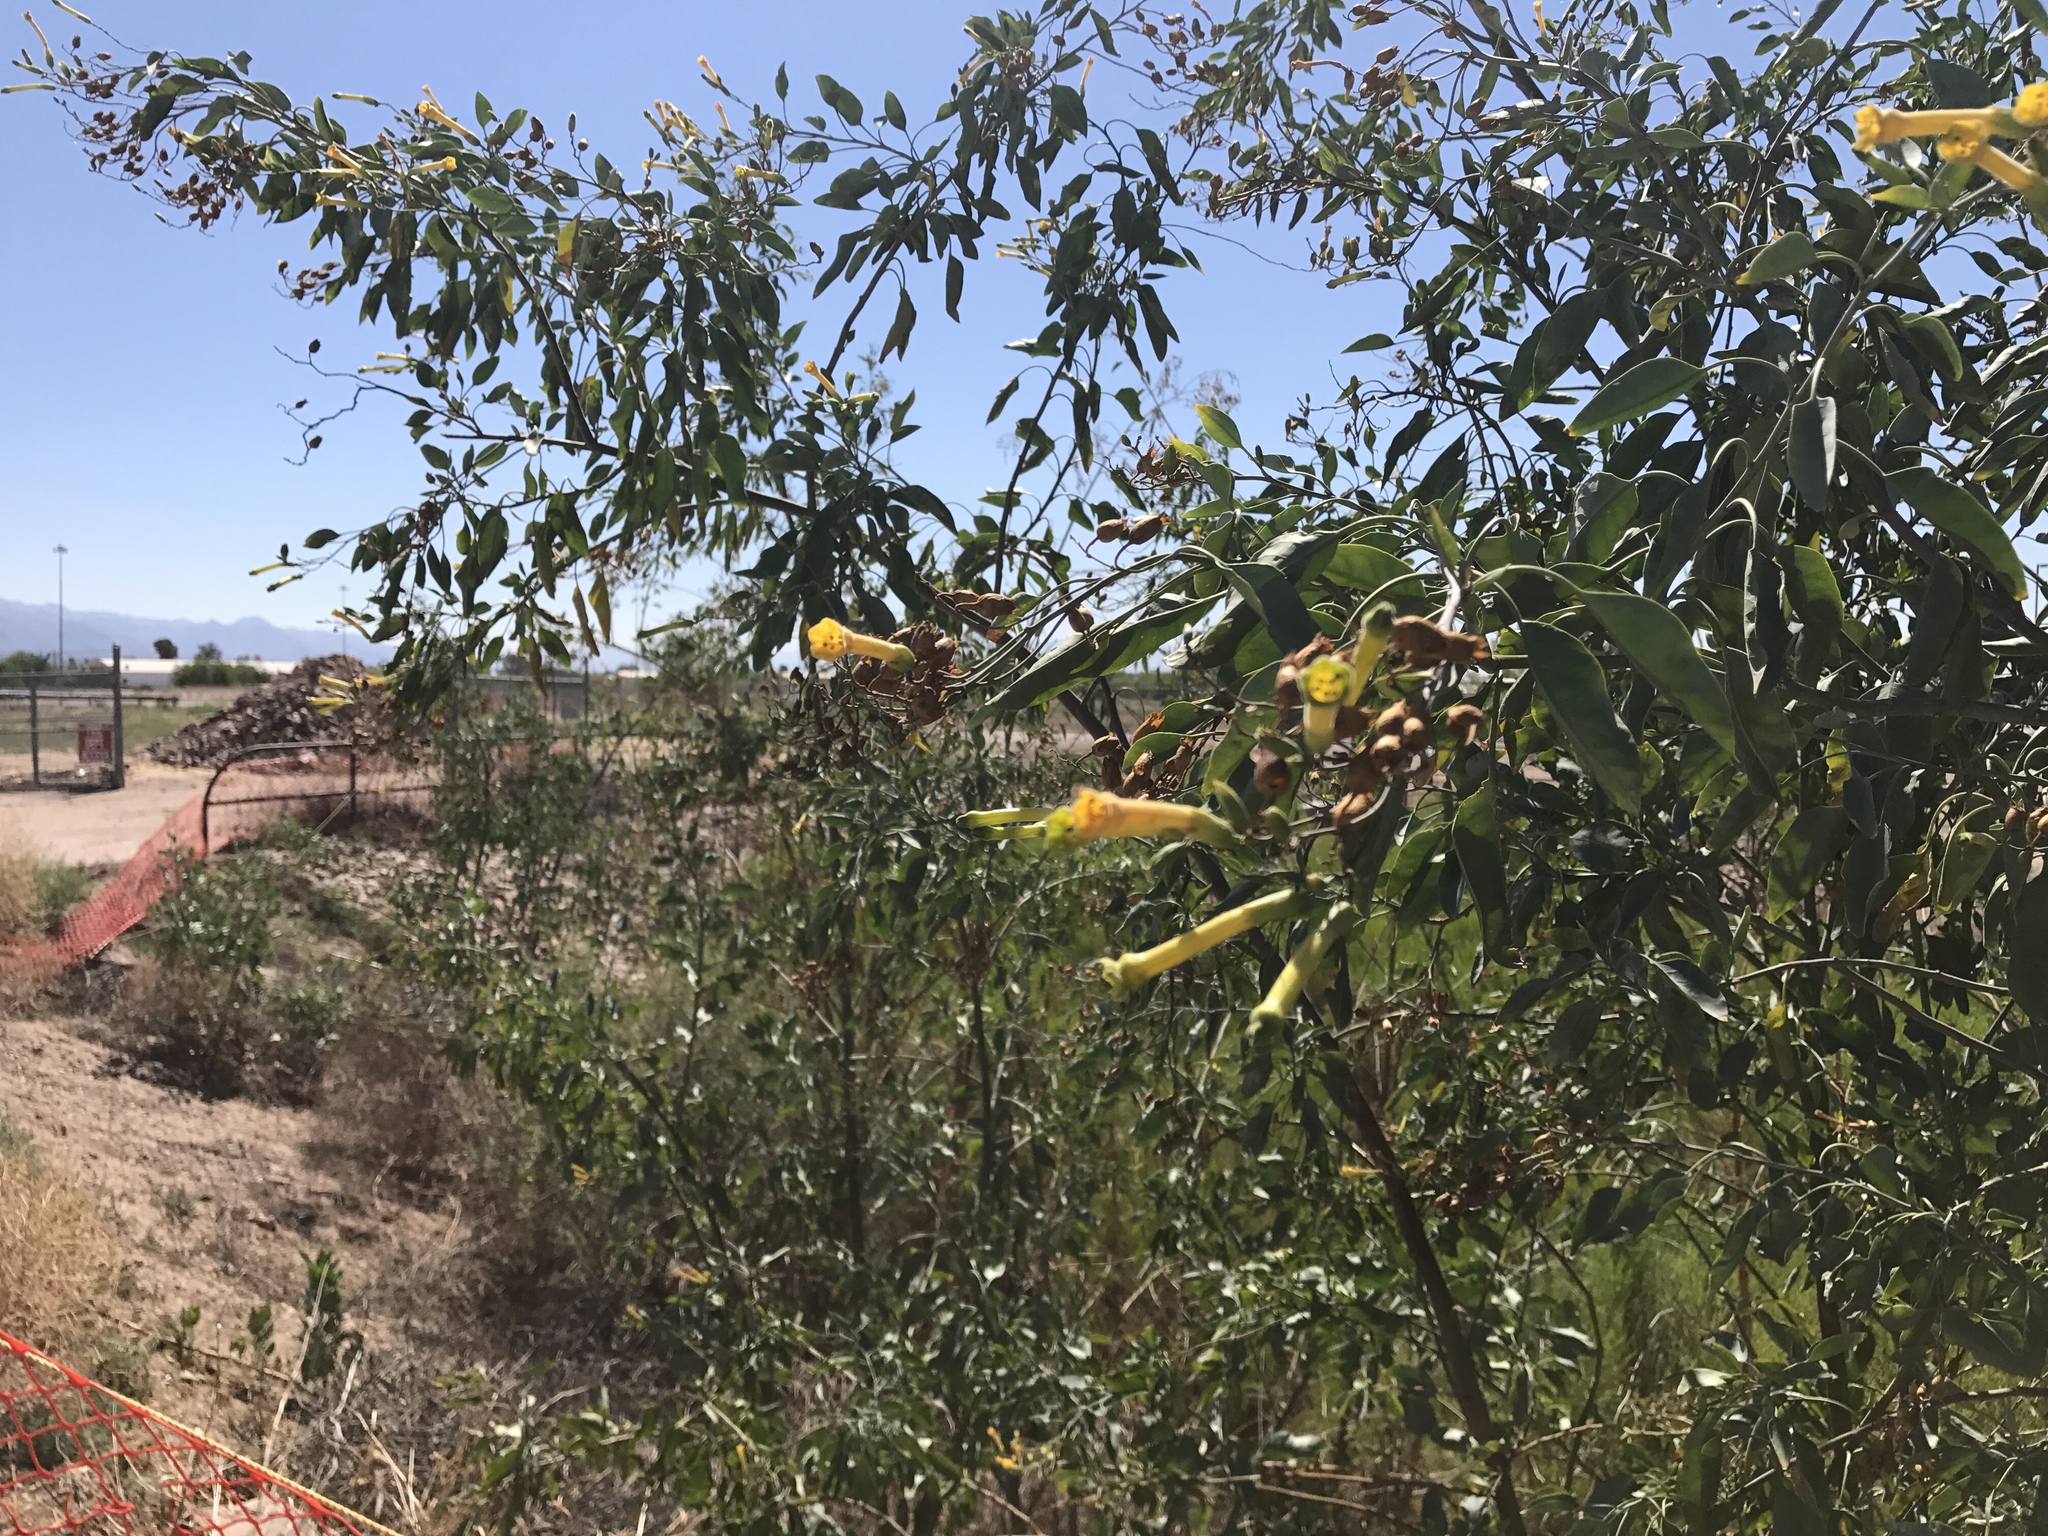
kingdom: Plantae
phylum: Tracheophyta
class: Magnoliopsida
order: Solanales
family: Solanaceae
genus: Nicotiana
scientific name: Nicotiana glauca
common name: Tree tobacco
